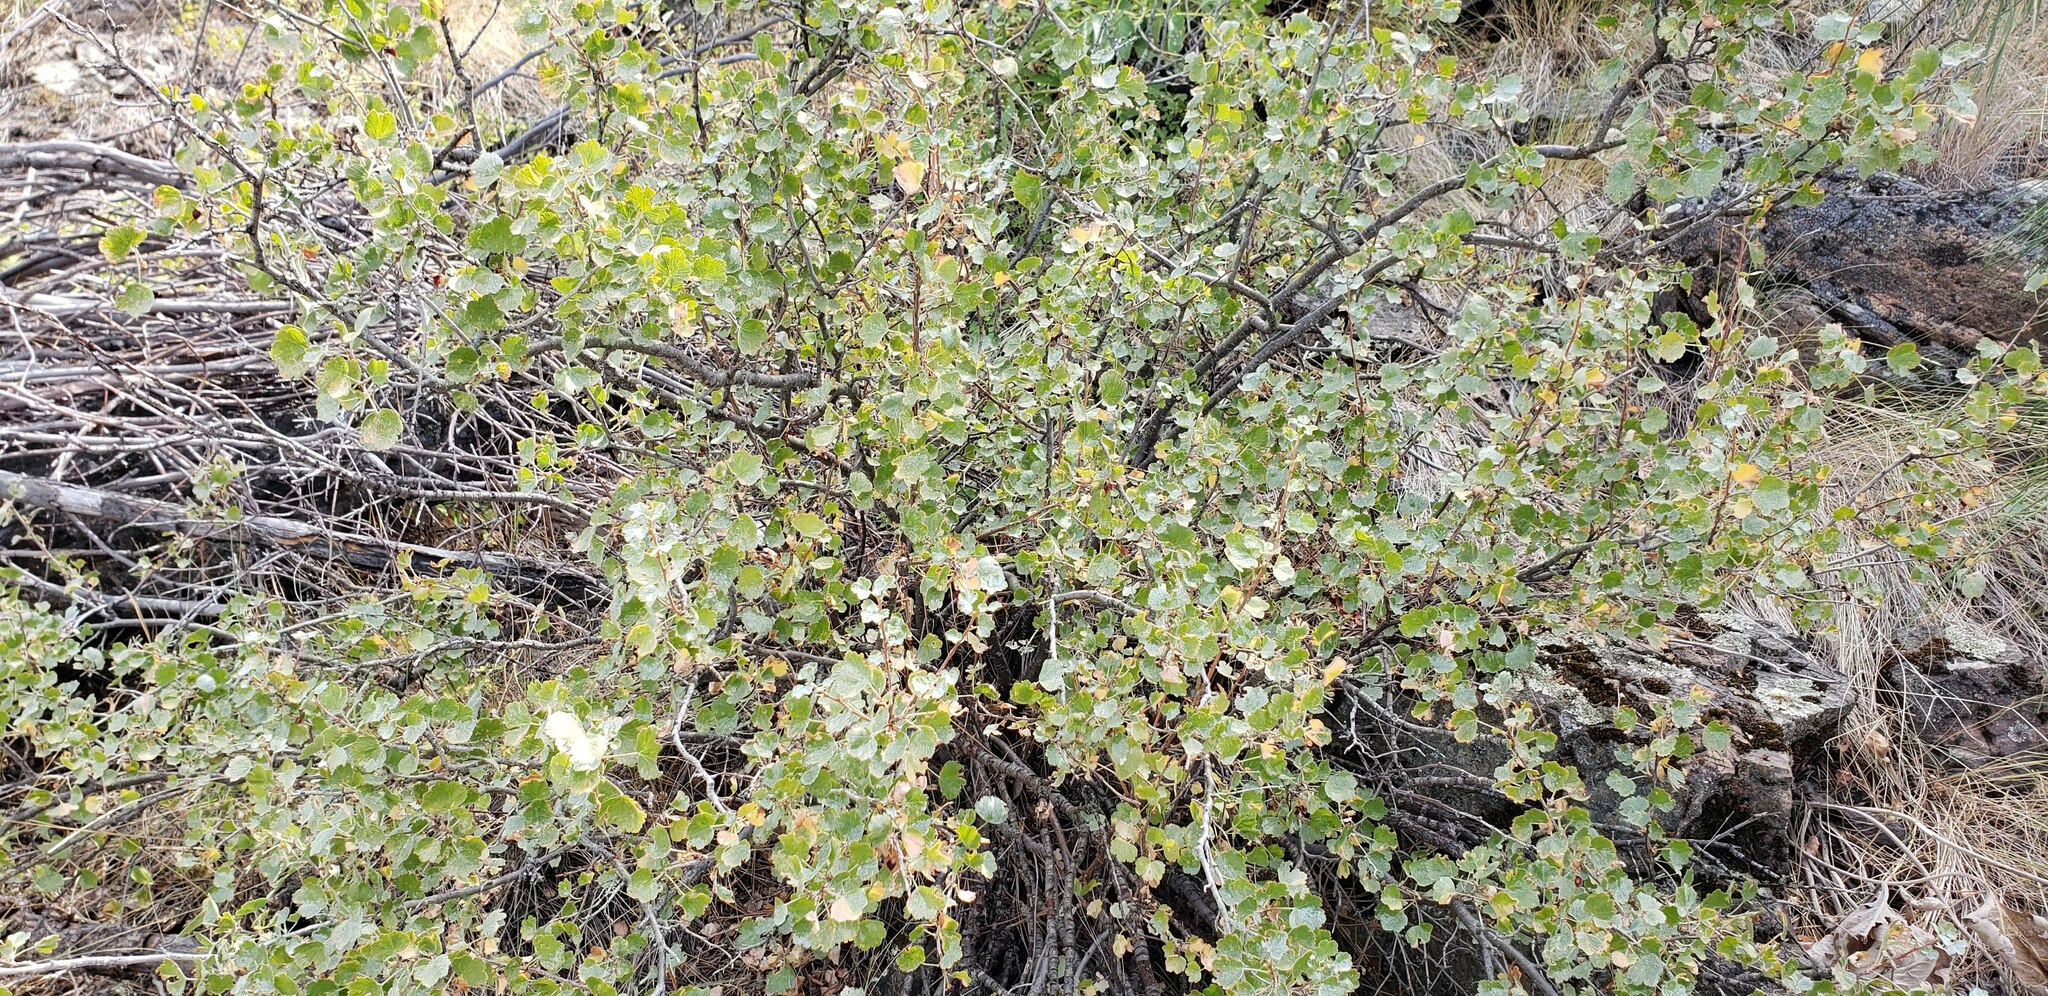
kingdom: Plantae
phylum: Tracheophyta
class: Magnoliopsida
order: Saxifragales
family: Grossulariaceae
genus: Ribes
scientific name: Ribes cereum
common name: Wax currant
